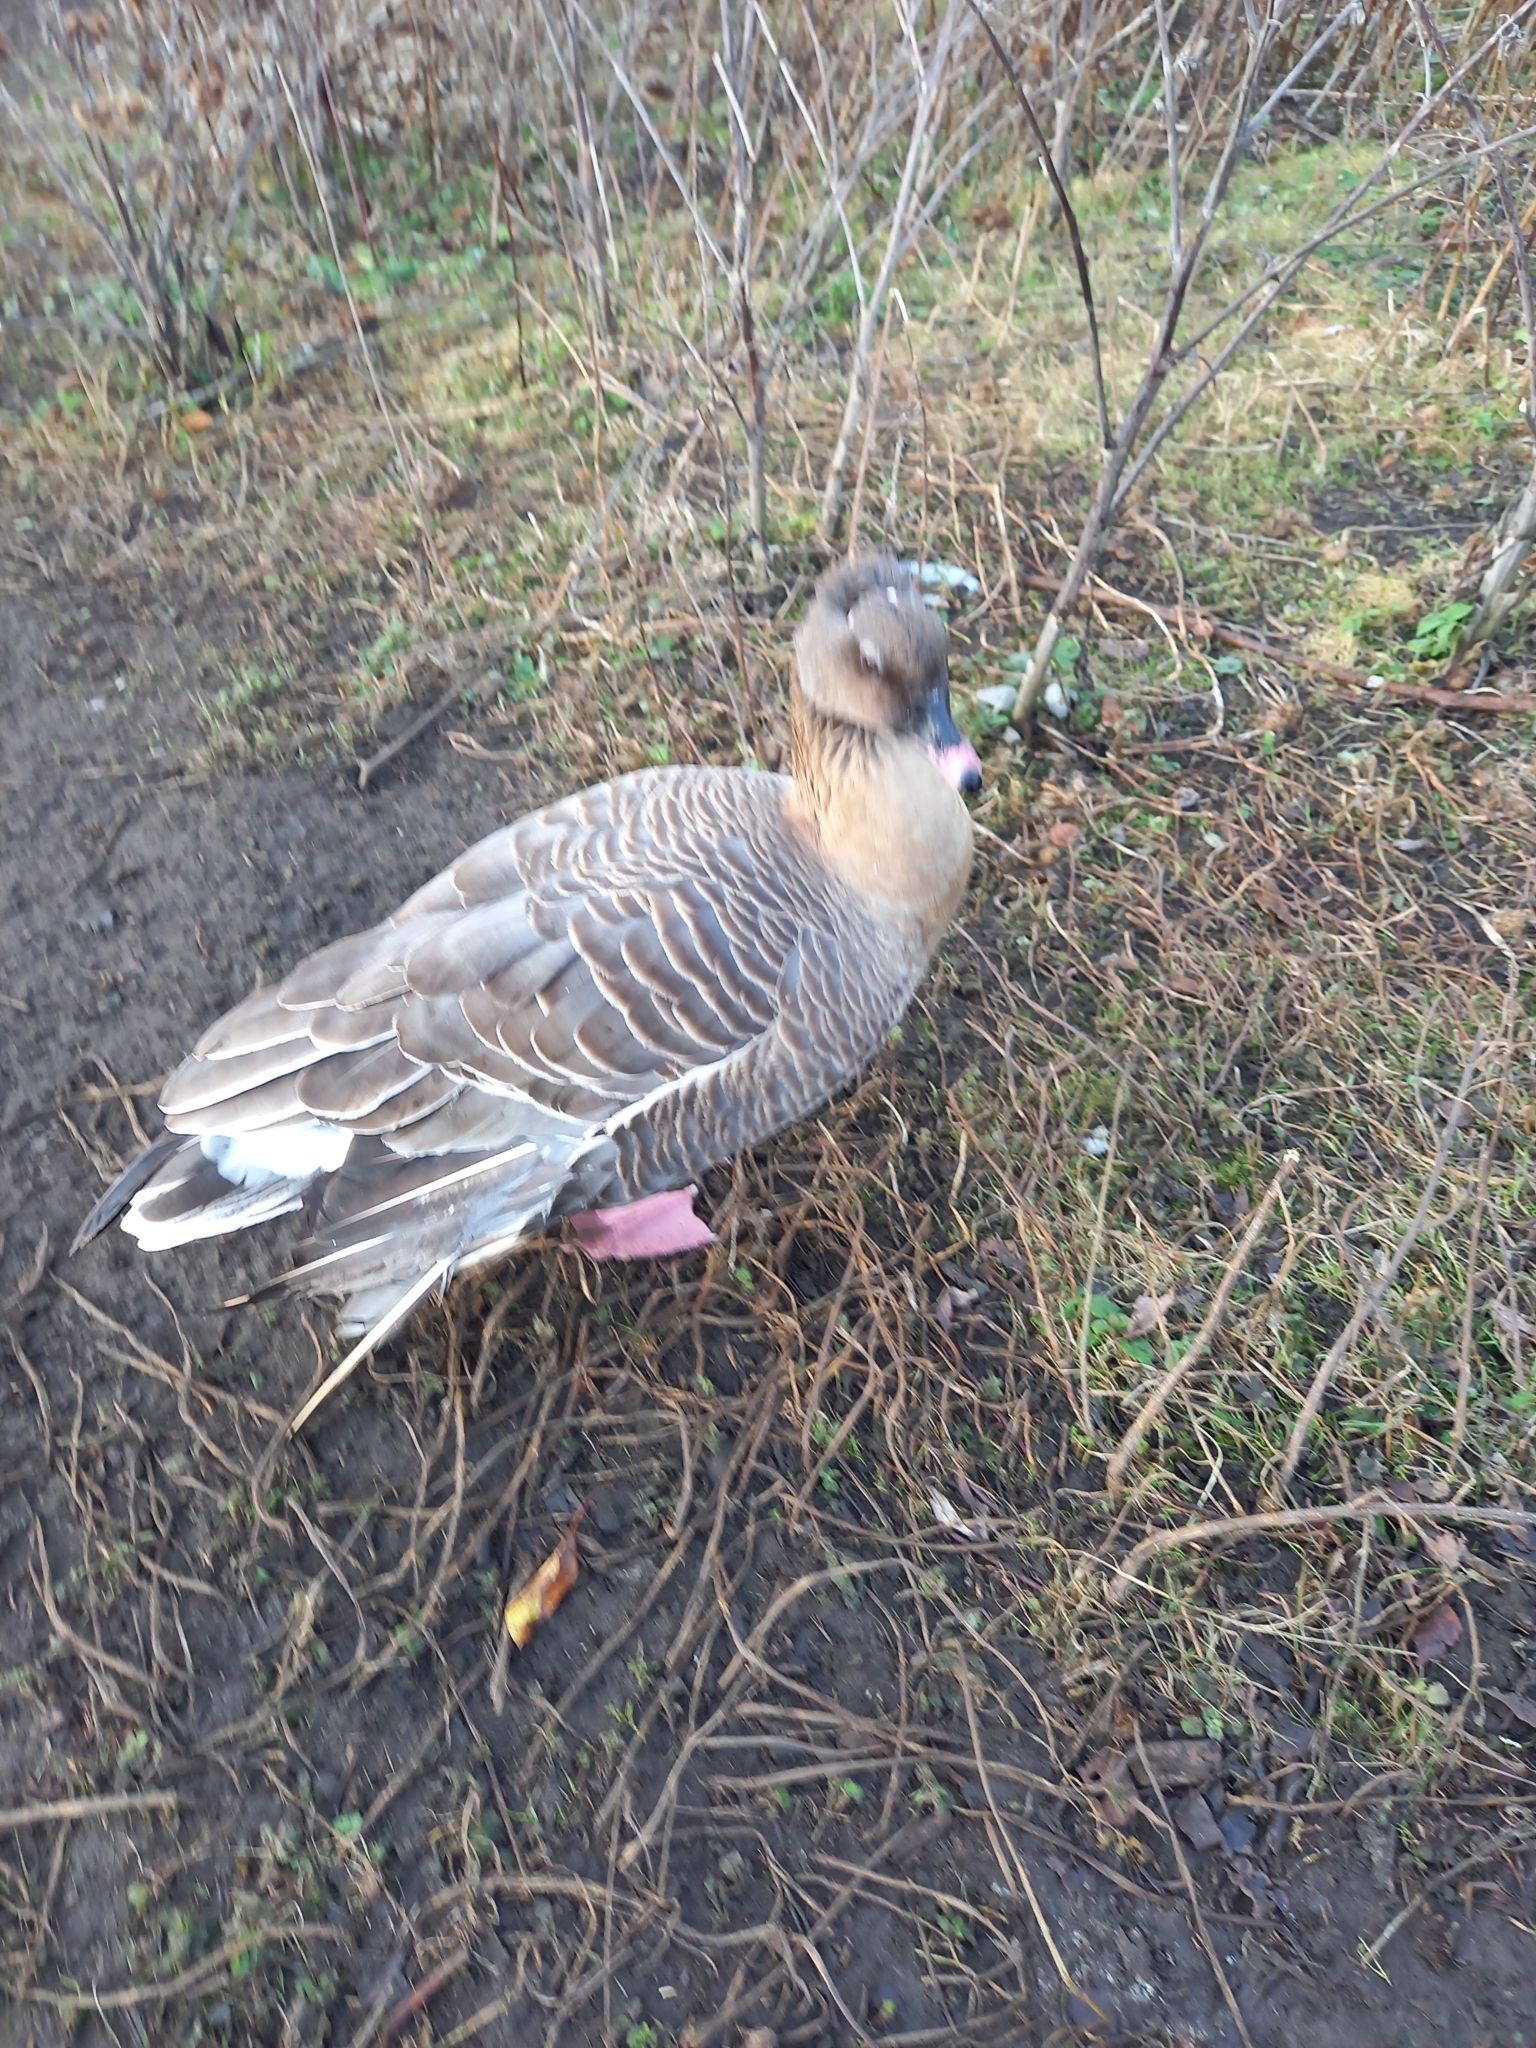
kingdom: Animalia
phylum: Chordata
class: Aves
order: Anseriformes
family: Anatidae
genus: Anser
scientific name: Anser brachyrhynchus
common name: Pink-footed goose
